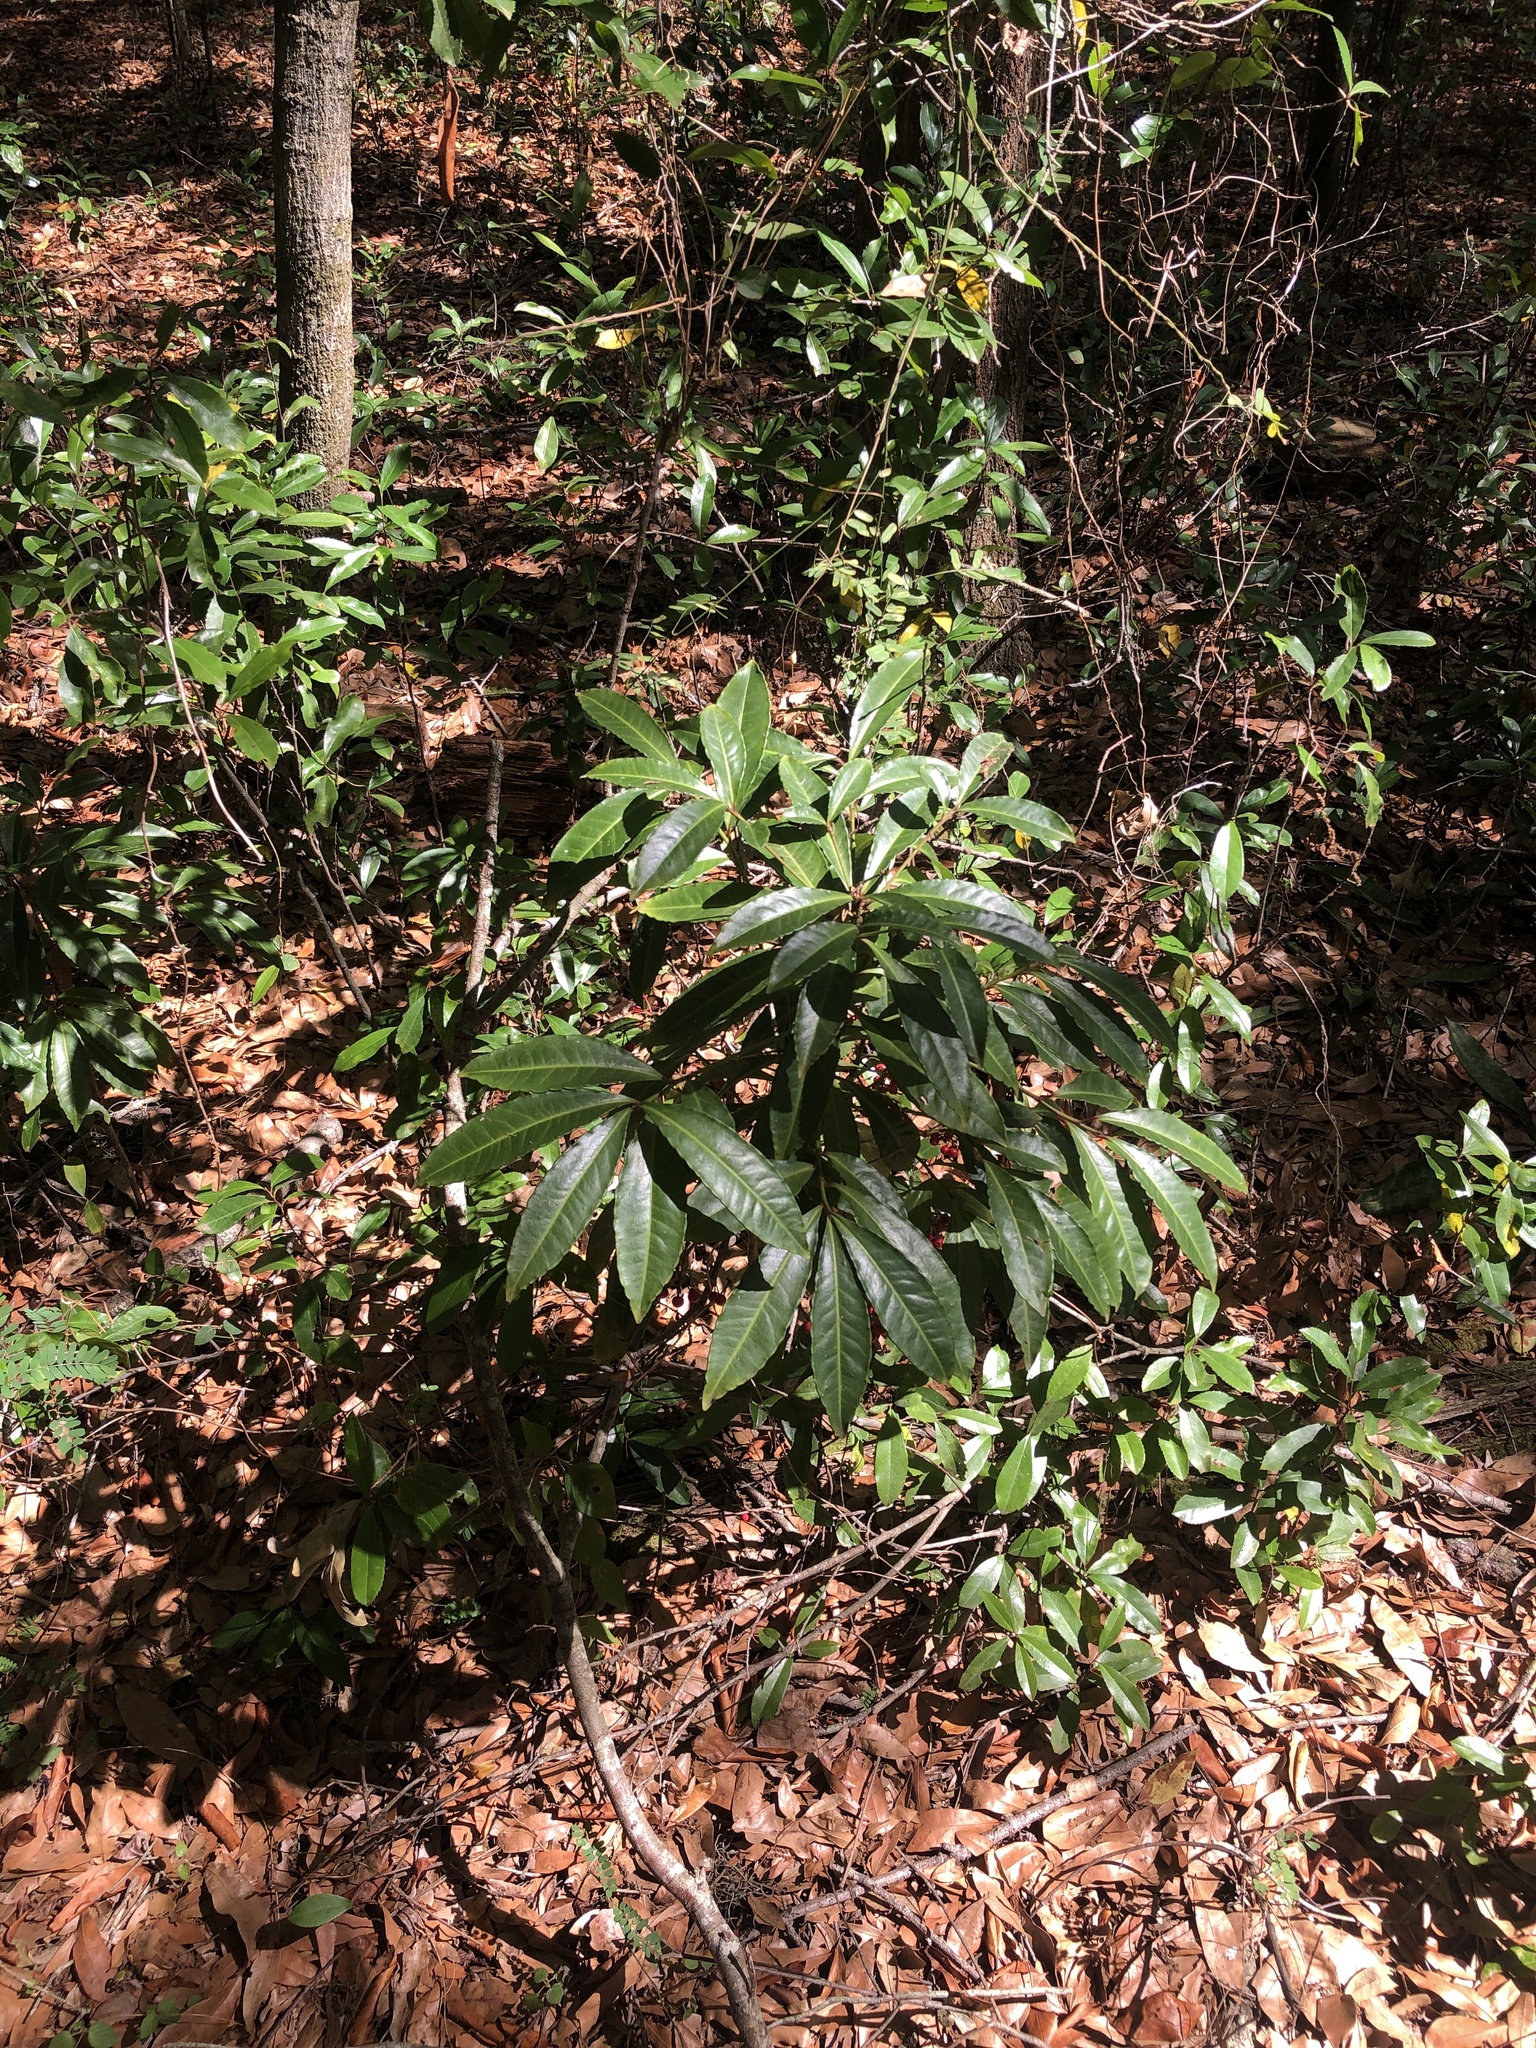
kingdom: Plantae
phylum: Tracheophyta
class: Magnoliopsida
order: Ericales
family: Primulaceae
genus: Ardisia
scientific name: Ardisia crenata
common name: Hen's eyes
